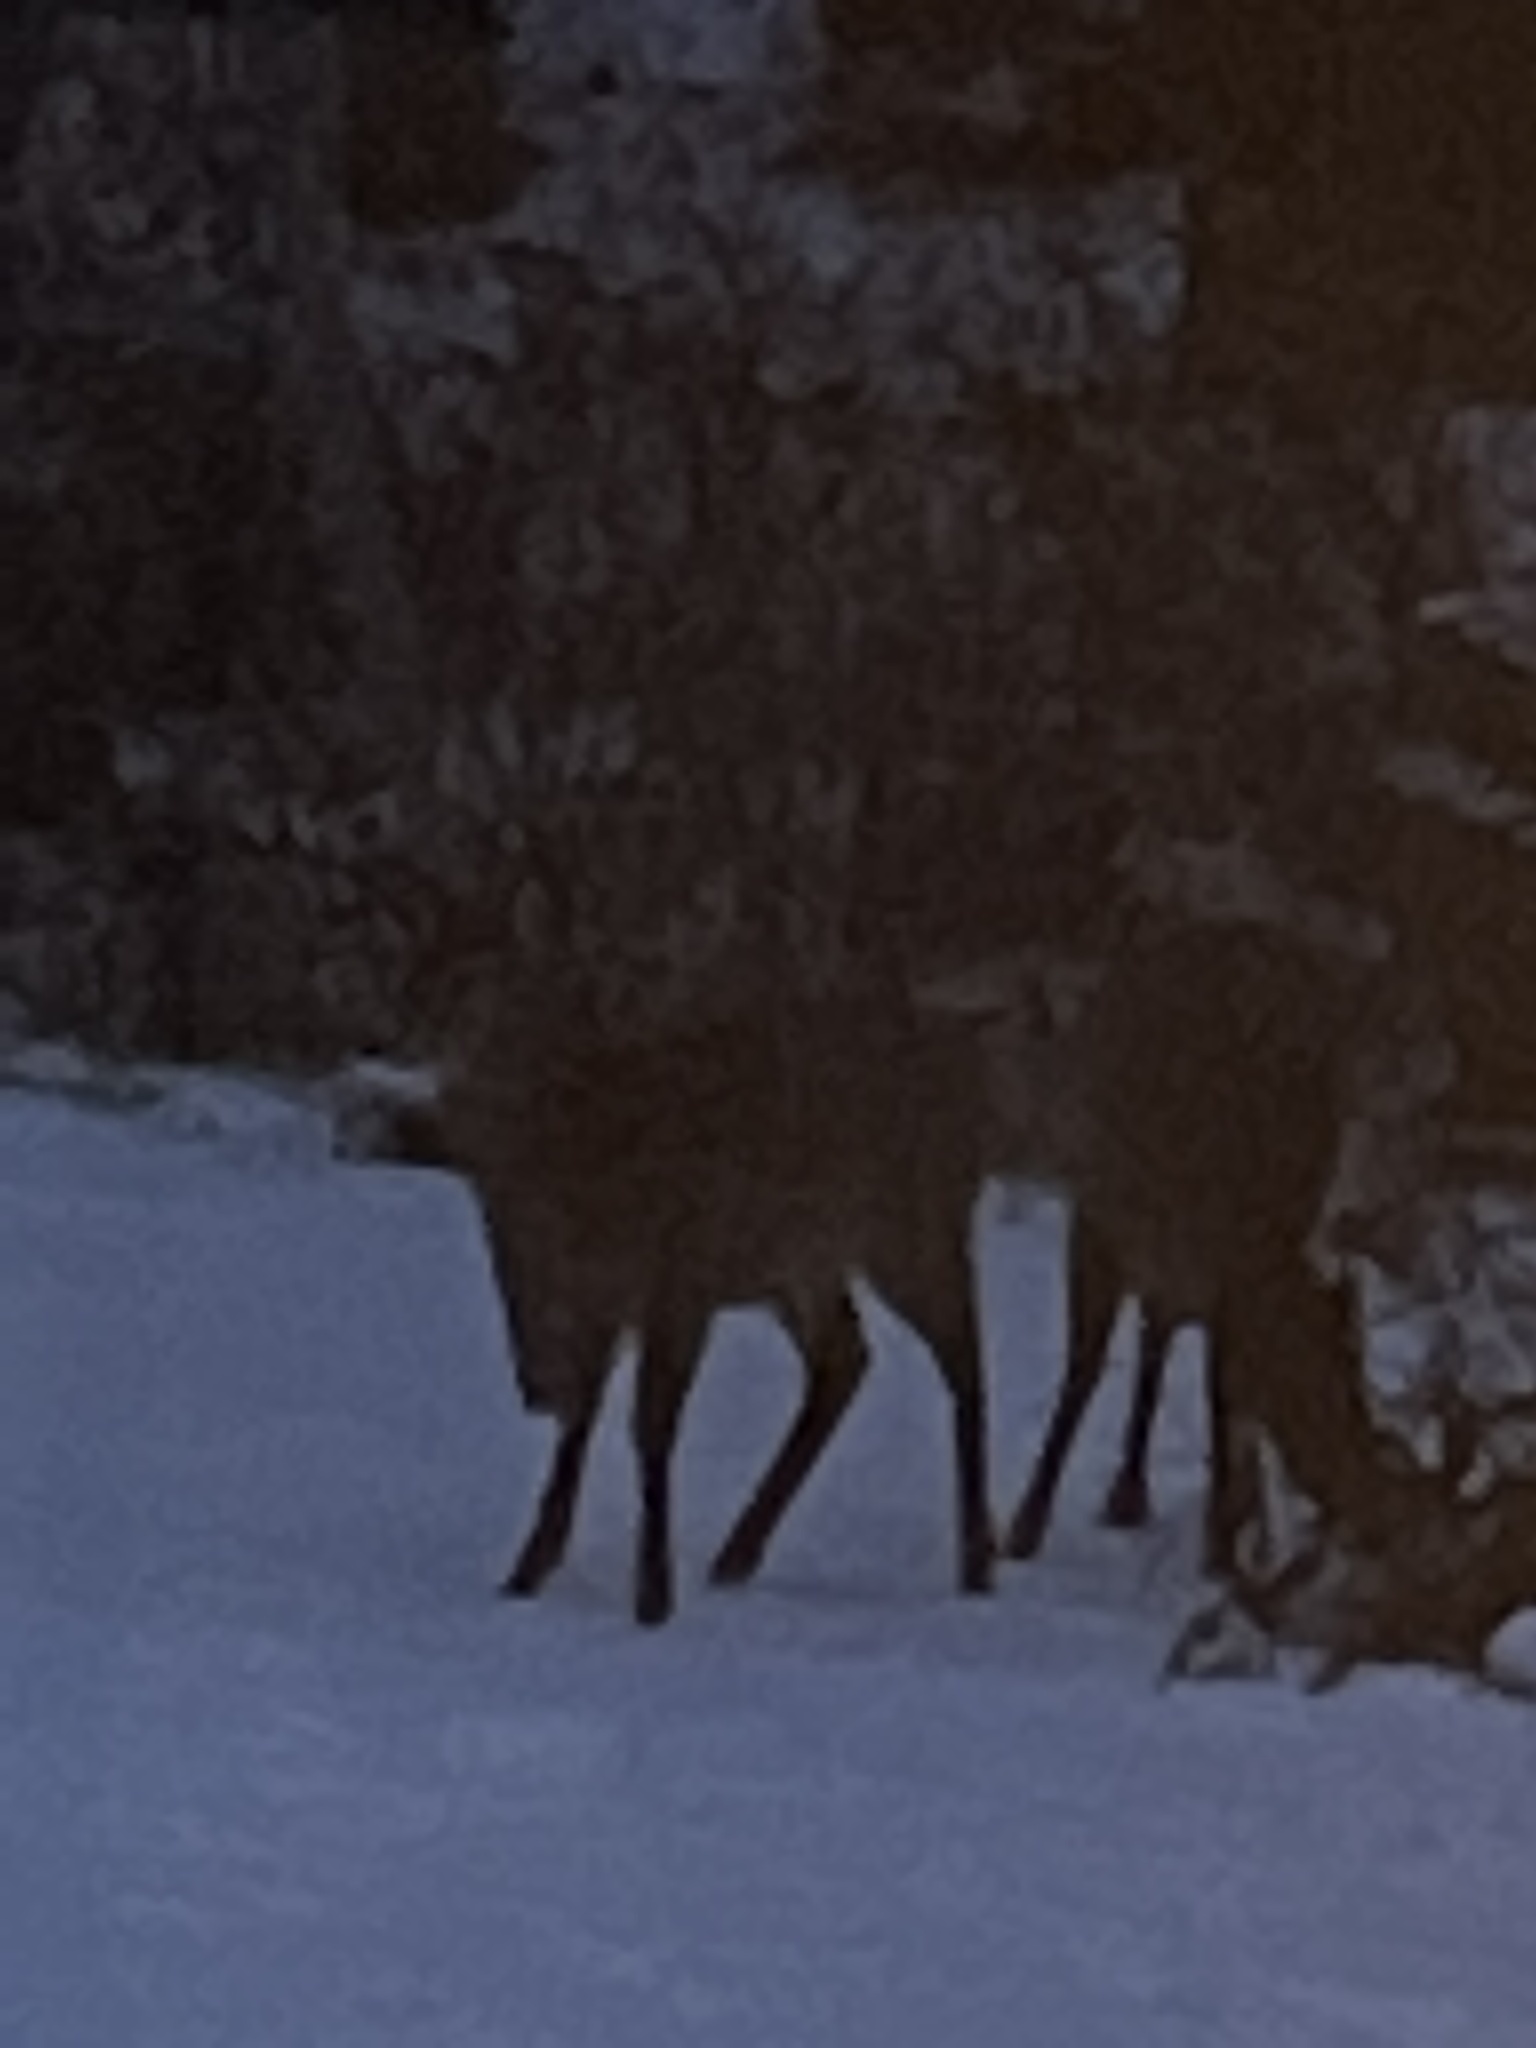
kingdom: Animalia
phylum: Chordata
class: Mammalia
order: Artiodactyla
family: Cervidae
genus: Odocoileus
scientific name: Odocoileus virginianus
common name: White-tailed deer
